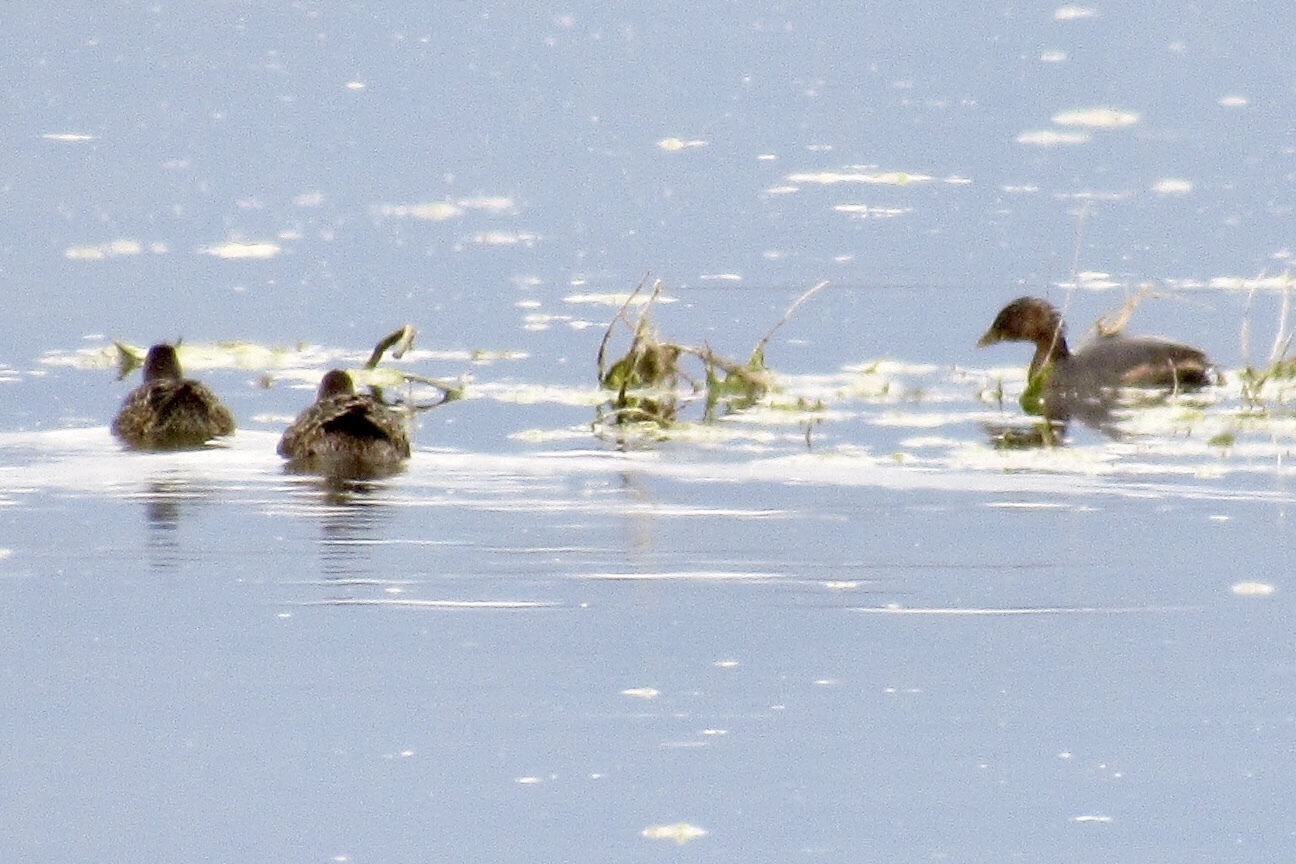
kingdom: Animalia
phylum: Chordata
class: Aves
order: Podicipediformes
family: Podicipedidae
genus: Podilymbus
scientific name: Podilymbus podiceps
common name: Pied-billed grebe
